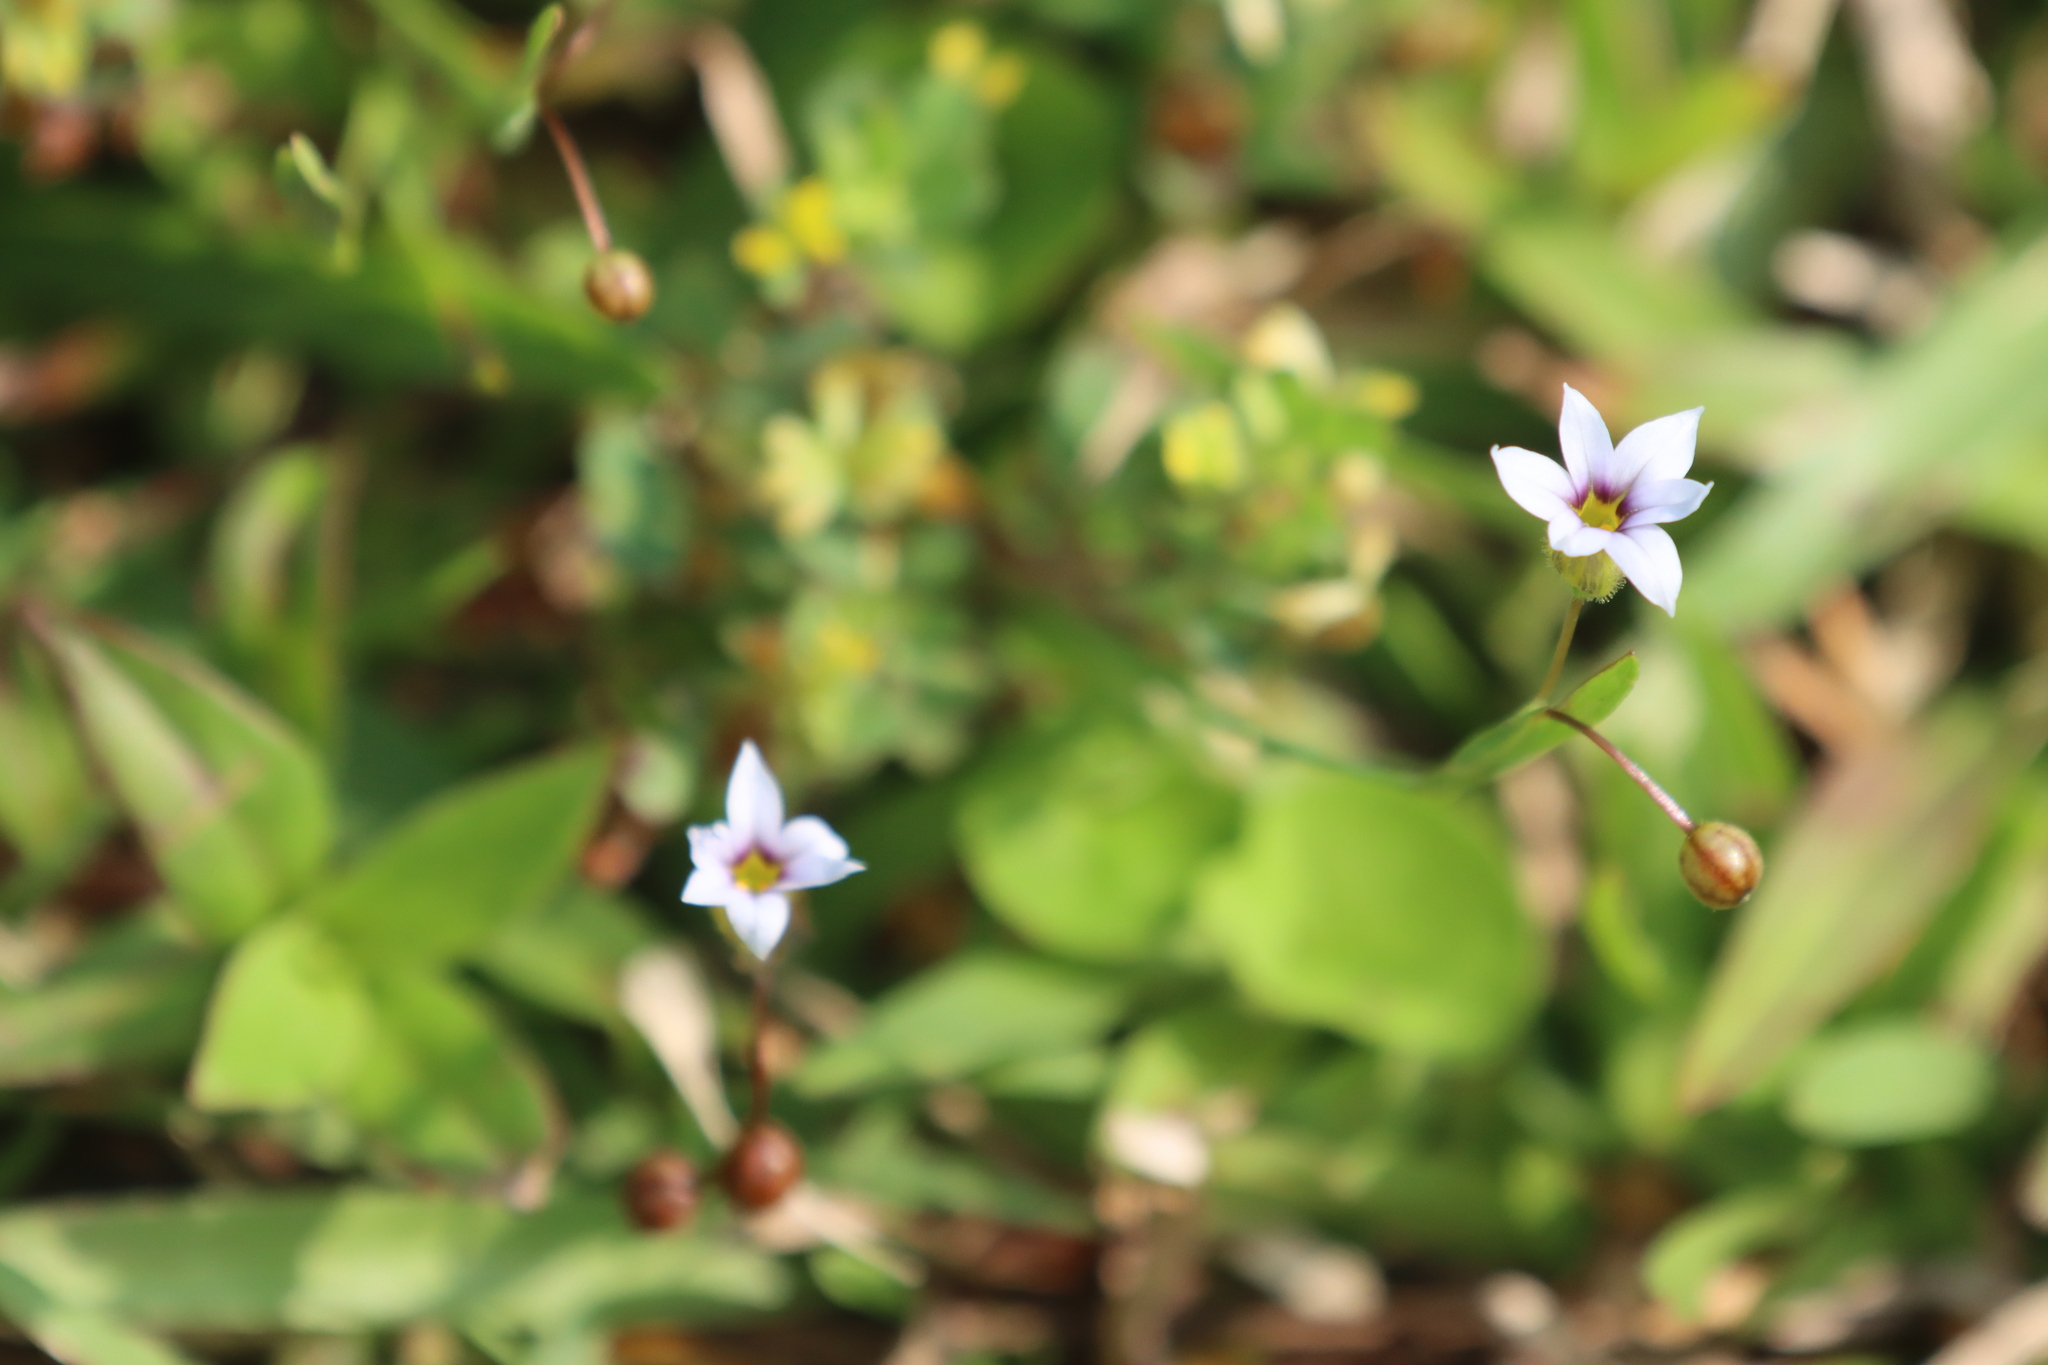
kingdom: Plantae
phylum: Tracheophyta
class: Liliopsida
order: Asparagales
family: Iridaceae
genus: Sisyrinchium
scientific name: Sisyrinchium micranthum
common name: Bermuda pigroot
